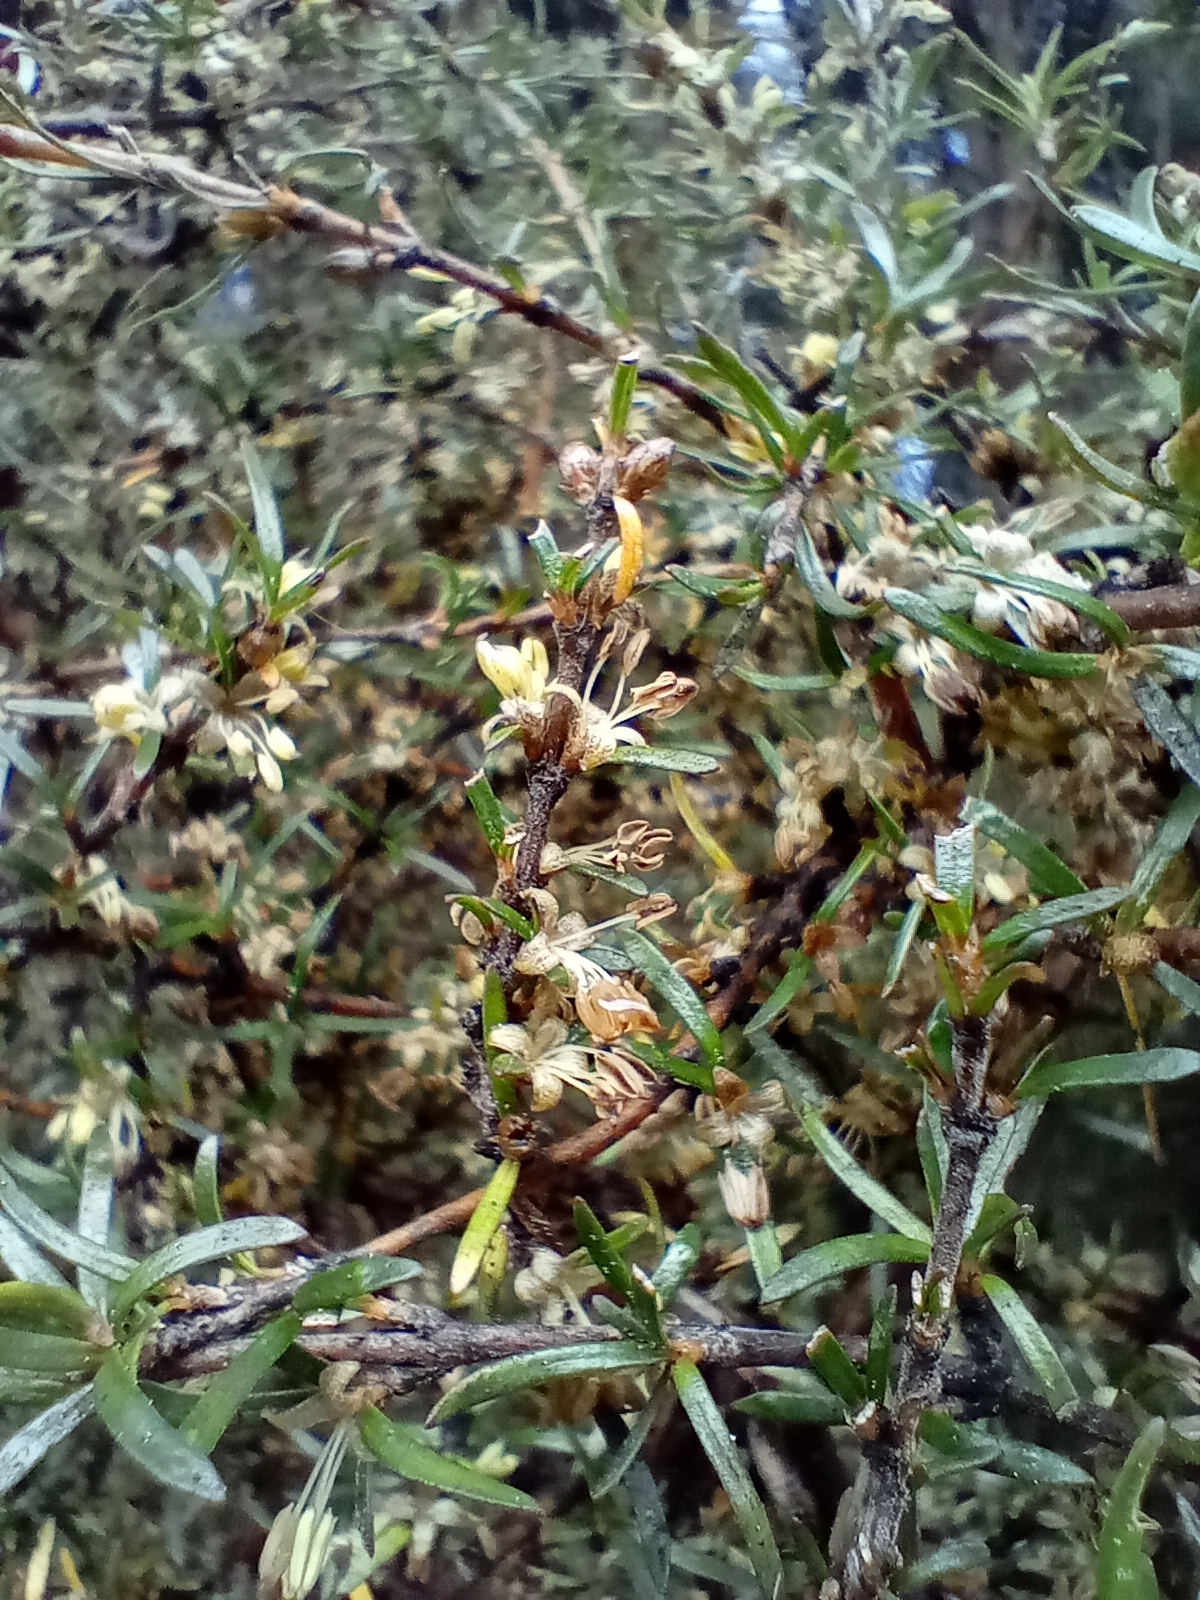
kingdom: Plantae
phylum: Tracheophyta
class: Magnoliopsida
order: Gentianales
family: Rubiaceae
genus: Coprosma
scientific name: Coprosma rugosa
